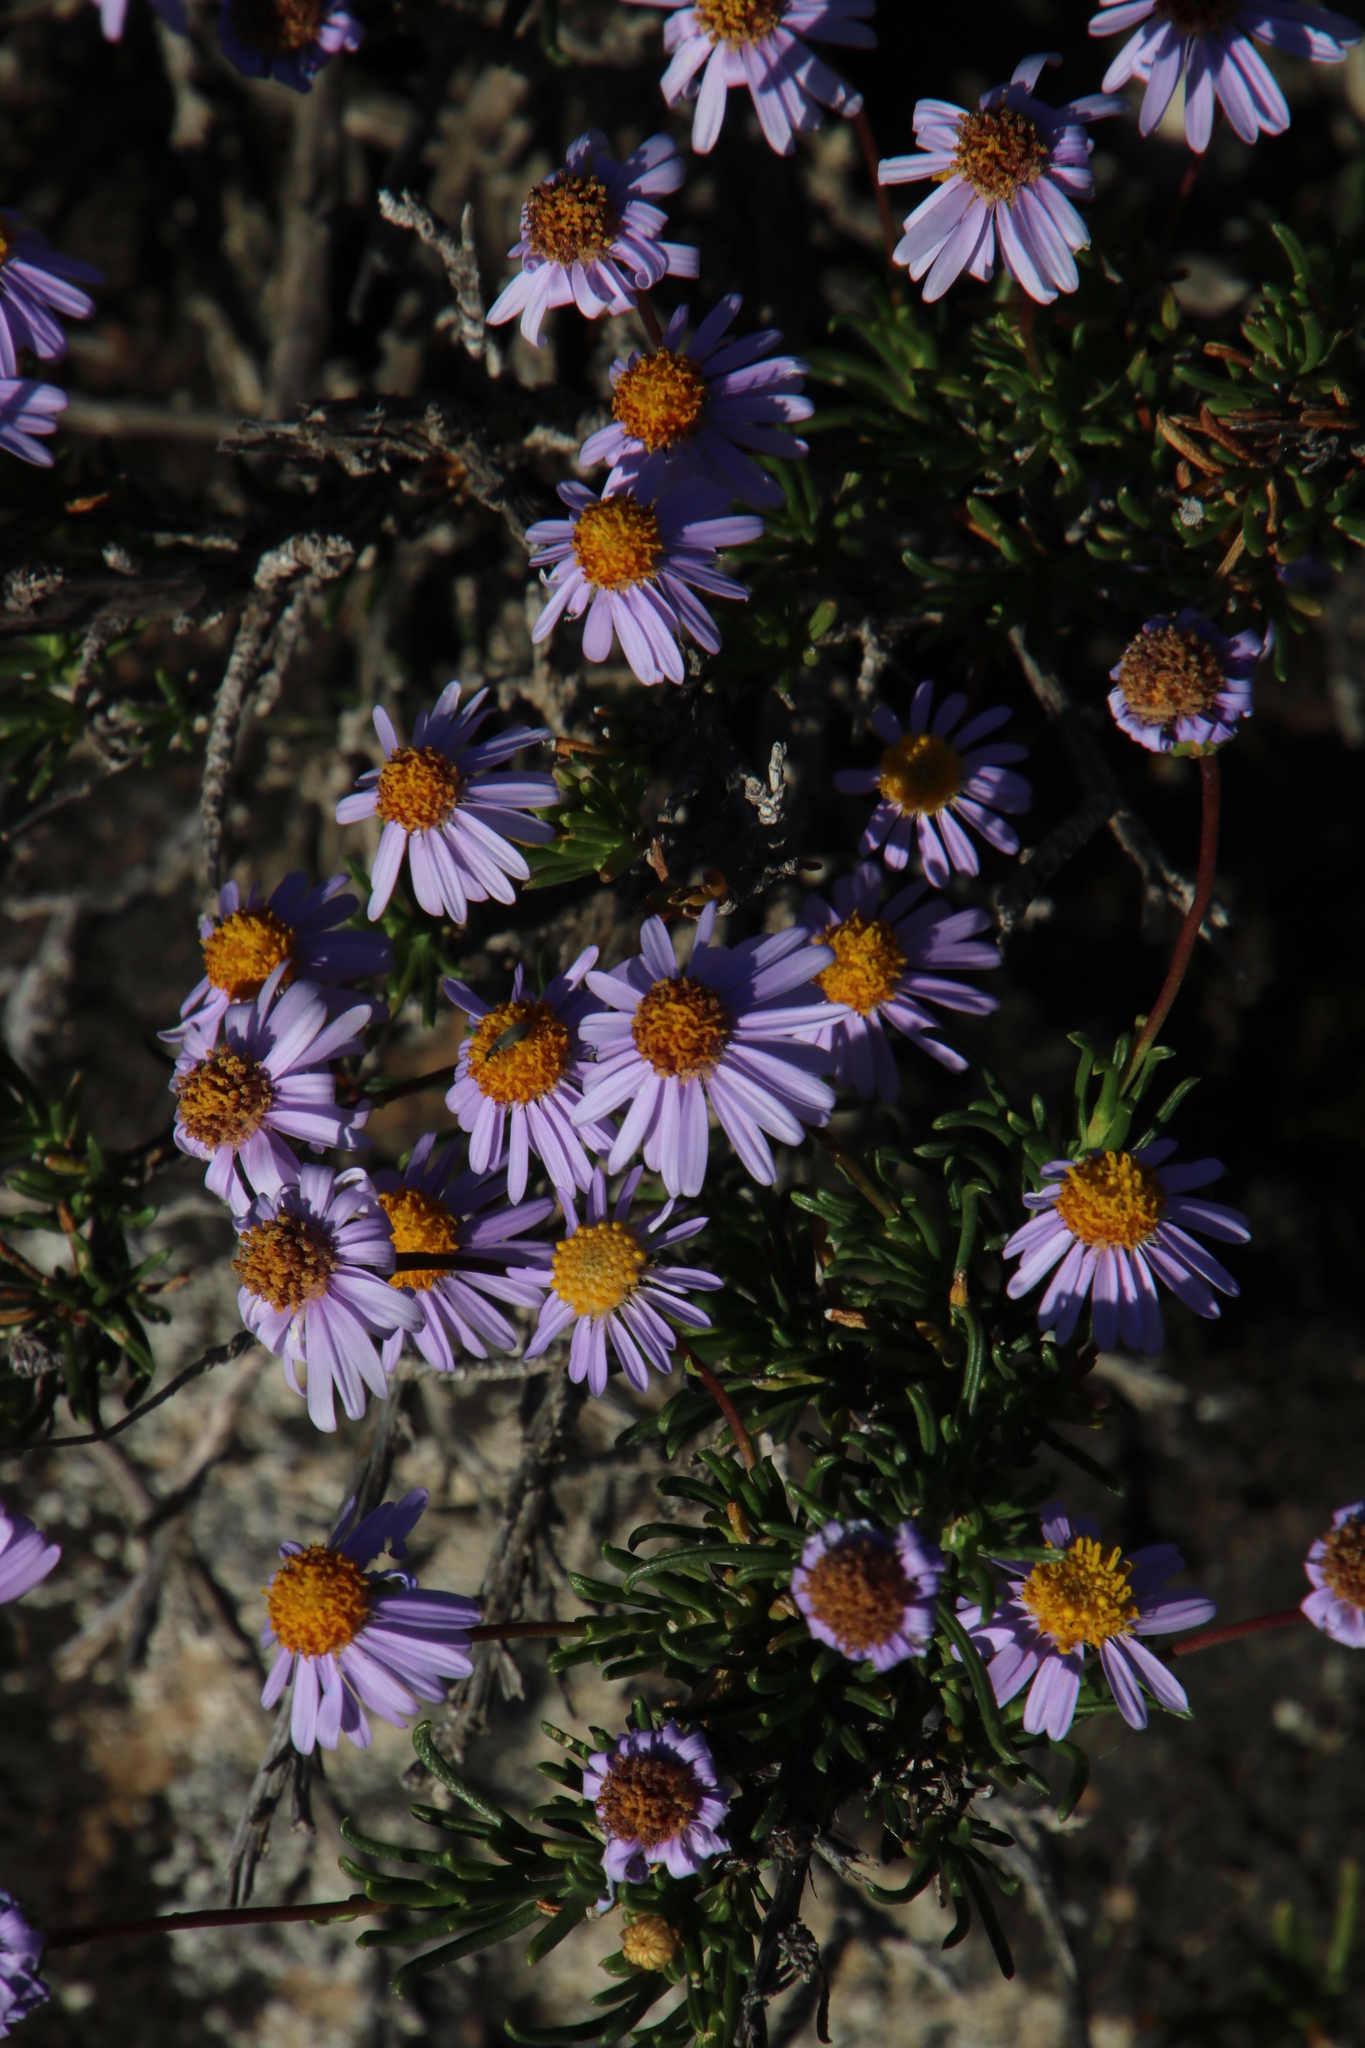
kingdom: Plantae
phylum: Tracheophyta
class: Magnoliopsida
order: Asterales
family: Asteraceae
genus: Felicia
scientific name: Felicia filifolia
